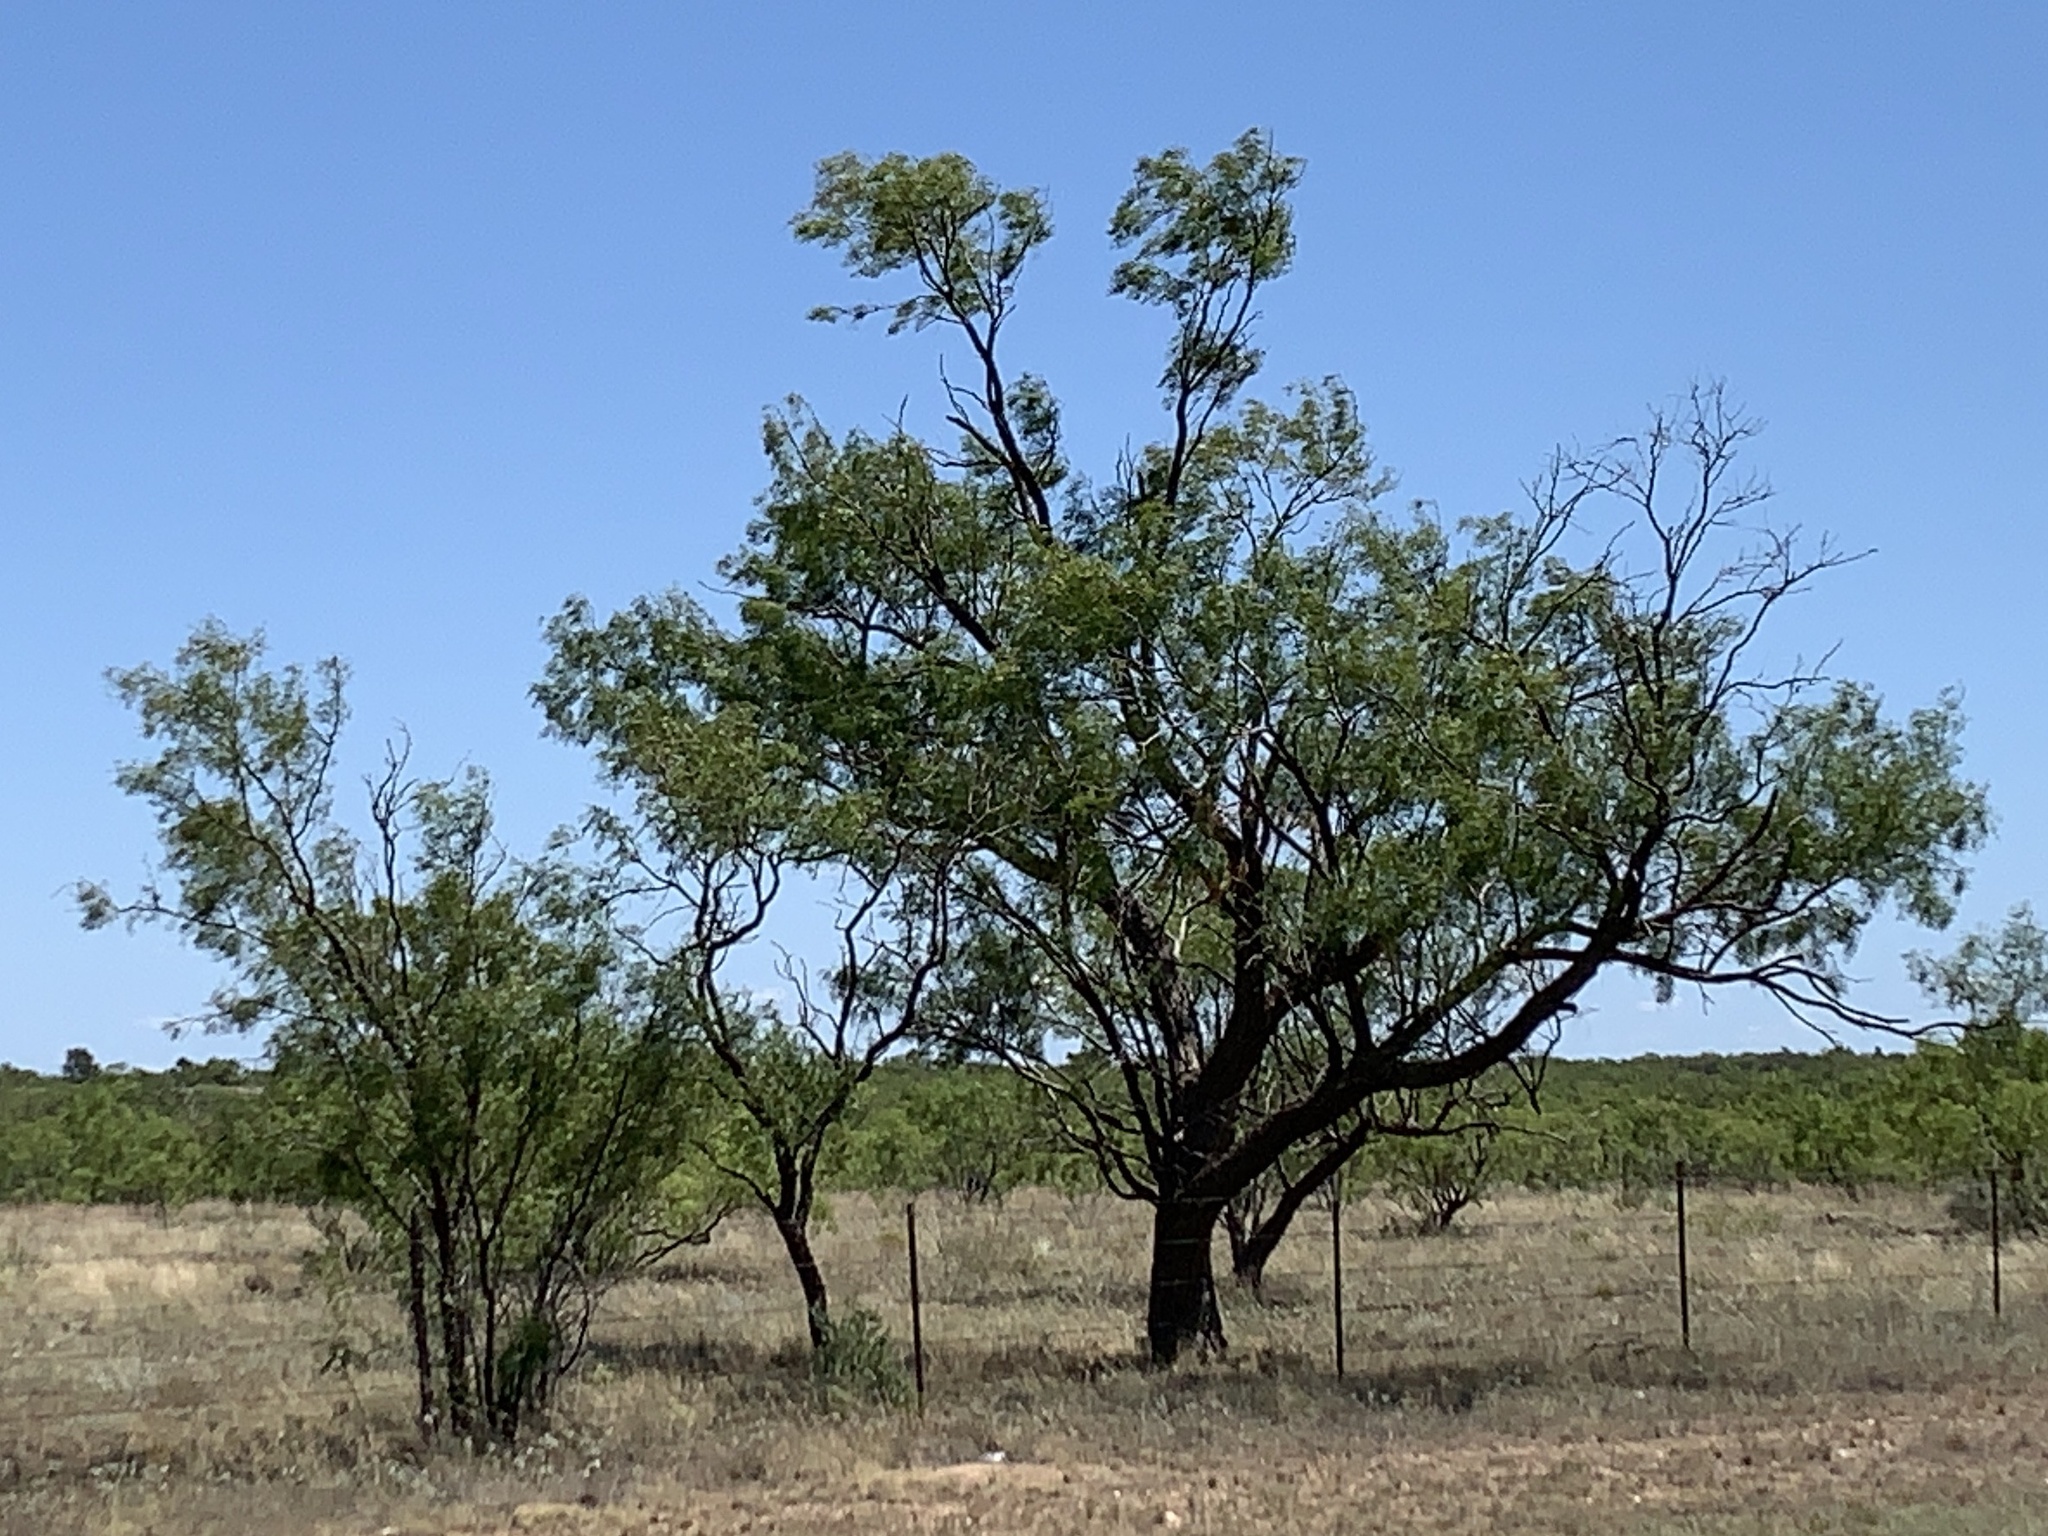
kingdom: Plantae
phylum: Tracheophyta
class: Magnoliopsida
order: Fabales
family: Fabaceae
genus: Prosopis
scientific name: Prosopis glandulosa
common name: Honey mesquite
